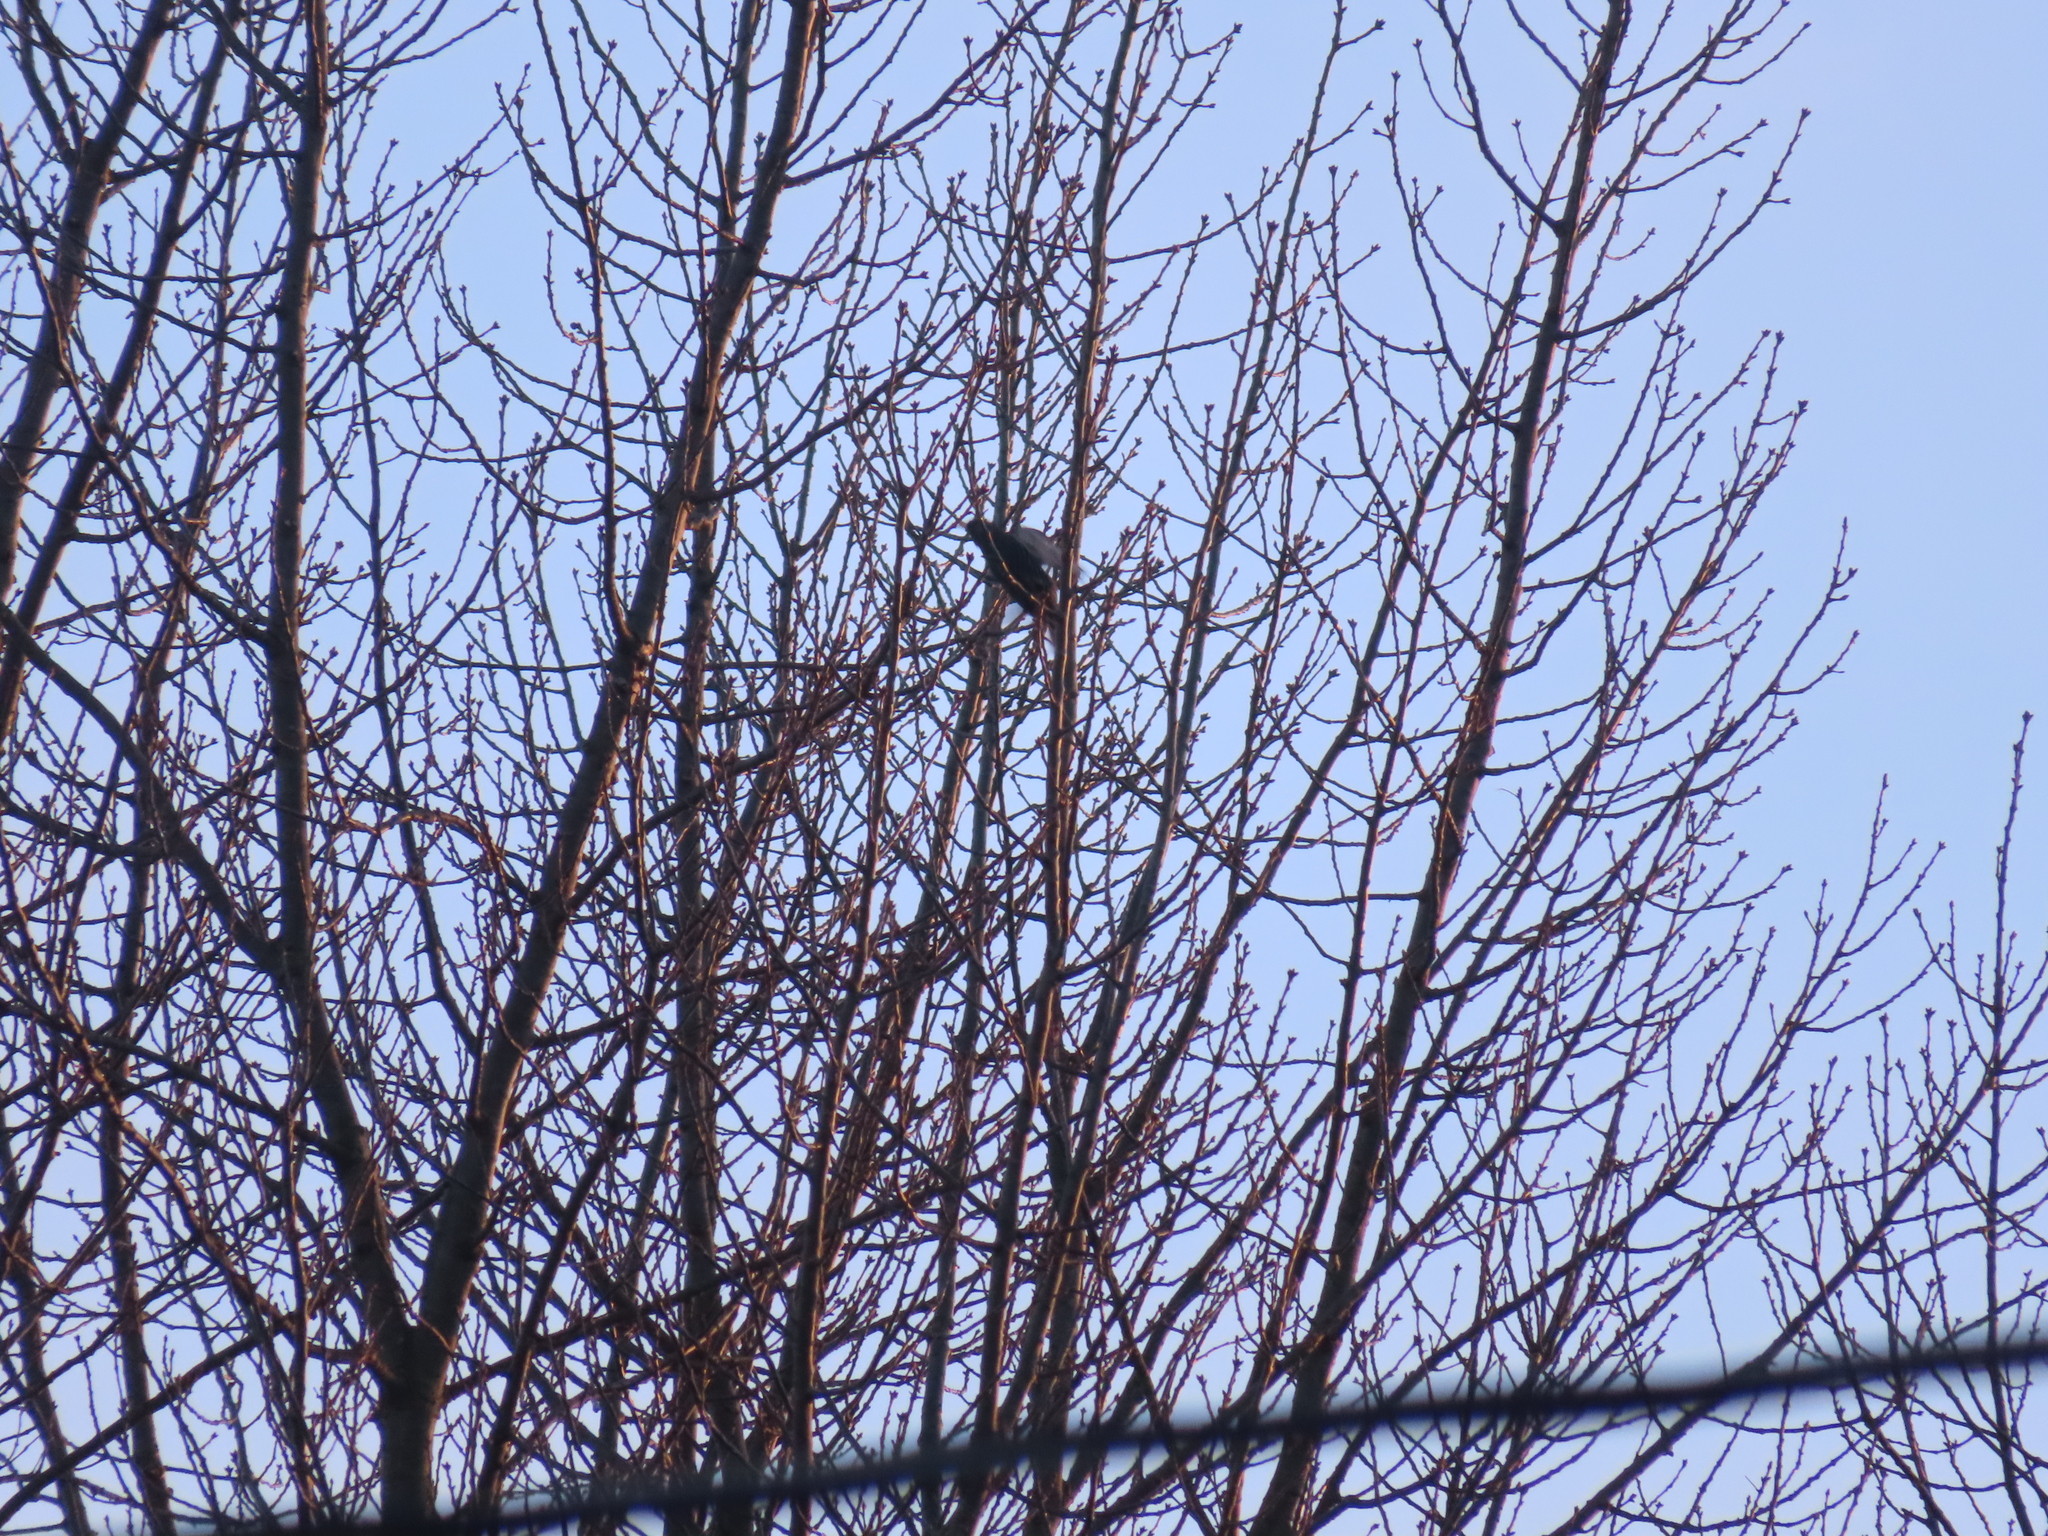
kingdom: Animalia
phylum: Chordata
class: Aves
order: Passeriformes
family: Sturnidae
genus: Sturnus
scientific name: Sturnus vulgaris
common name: Common starling
